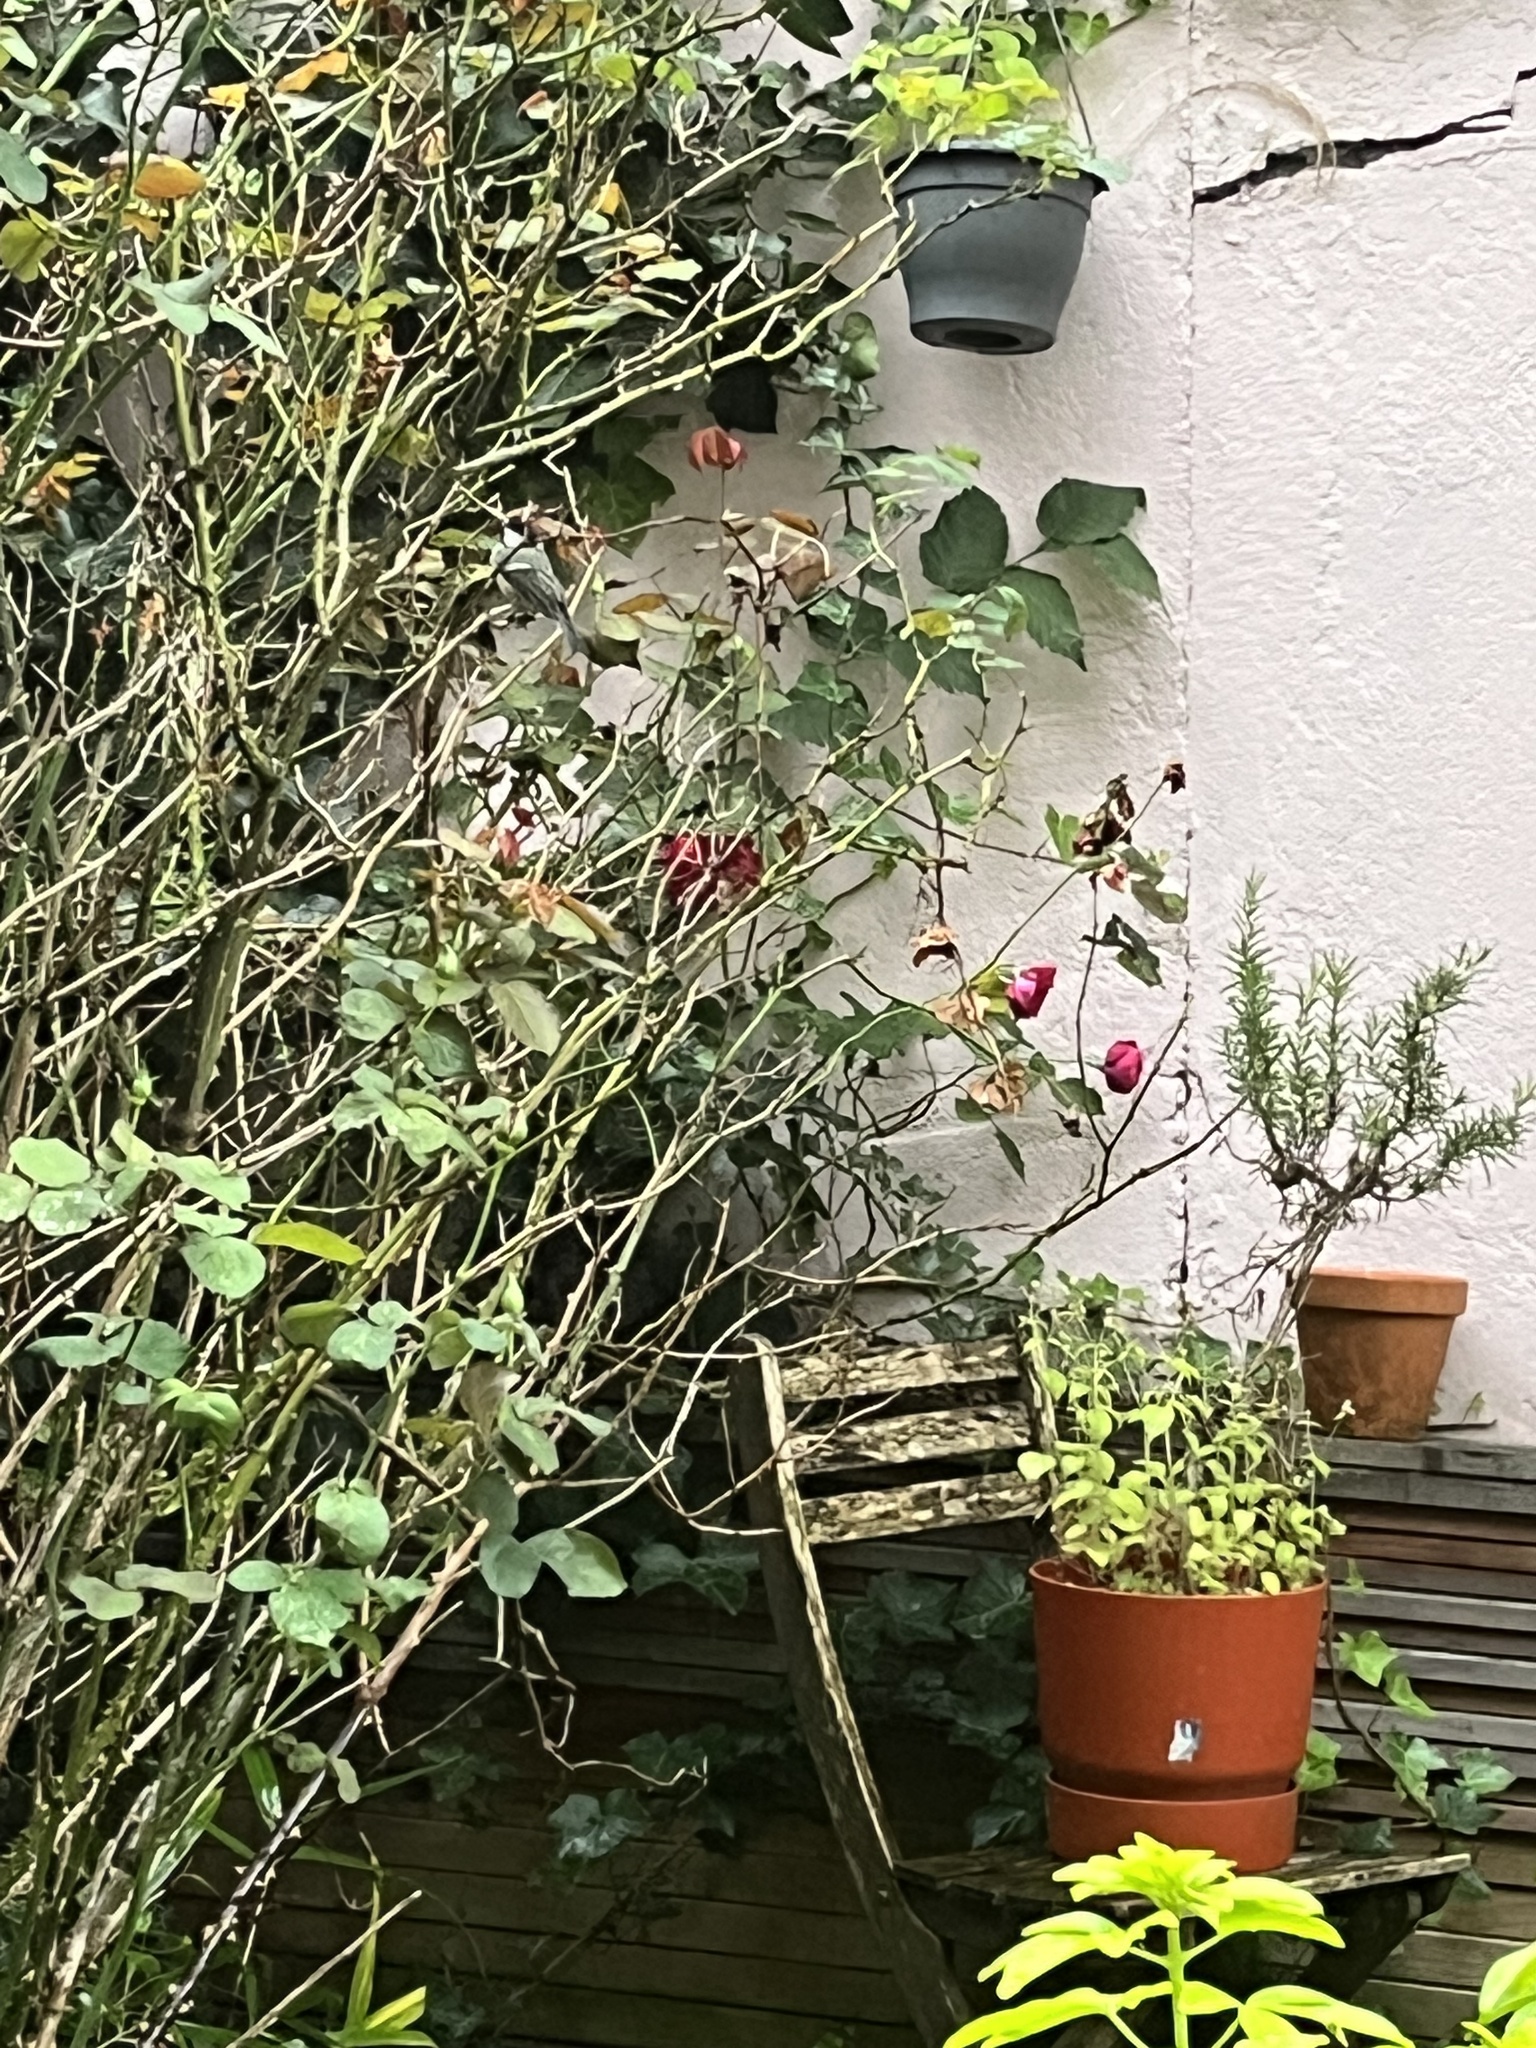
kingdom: Animalia
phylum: Chordata
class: Aves
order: Passeriformes
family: Paridae
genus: Parus
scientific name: Parus major
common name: Great tit
